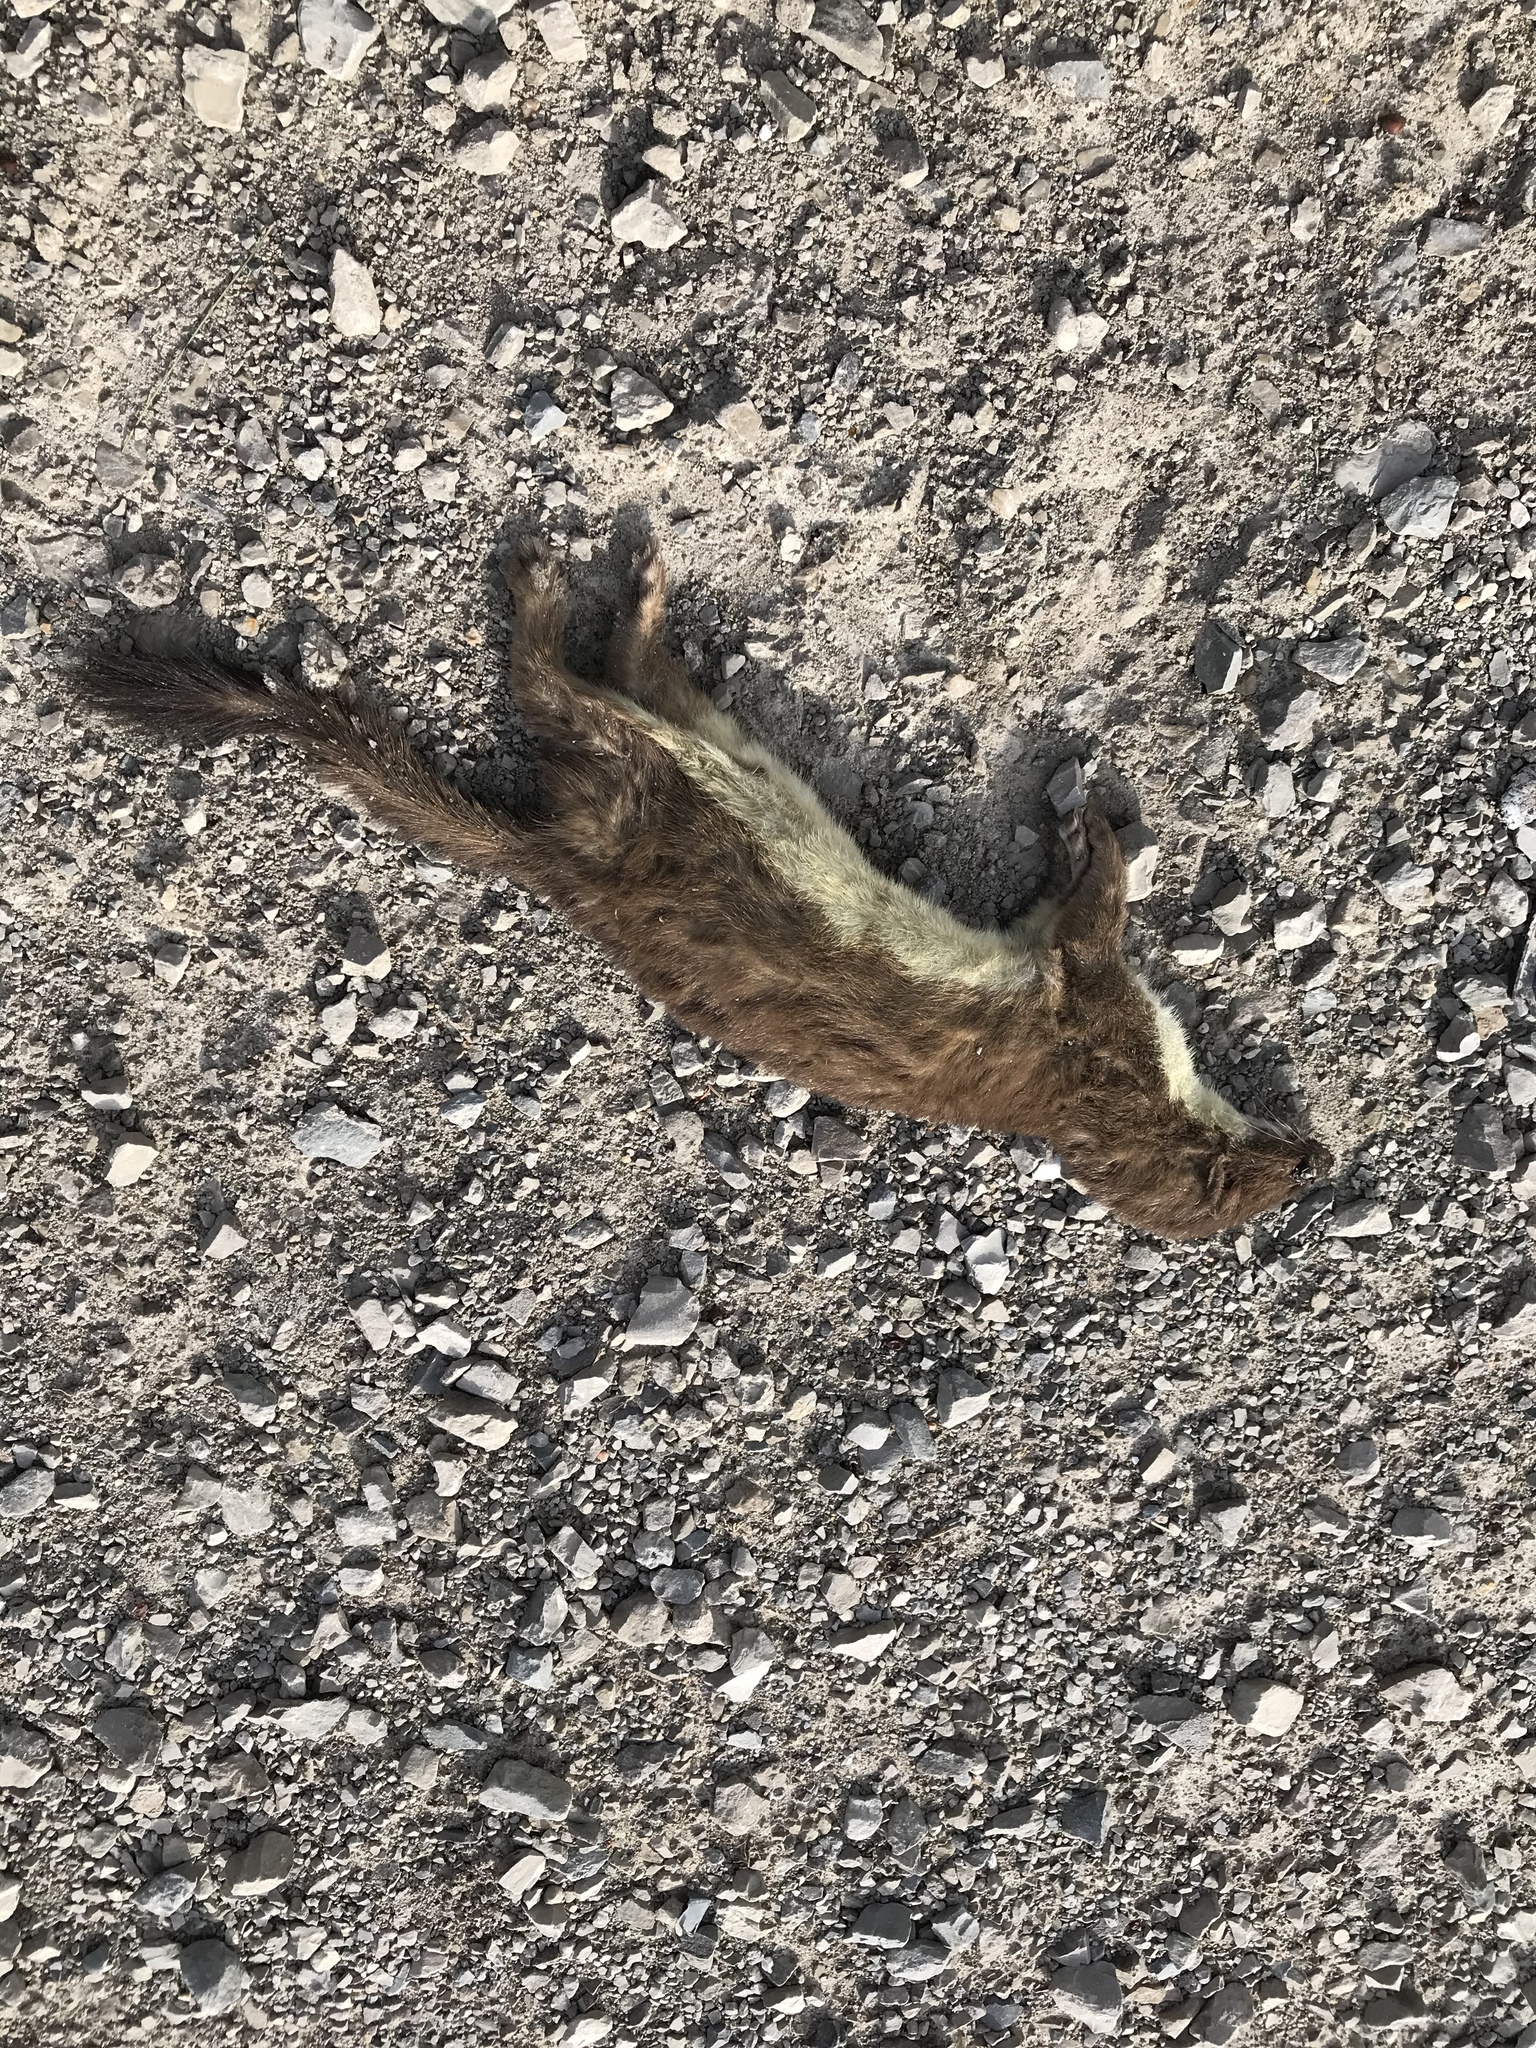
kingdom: Animalia
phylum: Chordata
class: Mammalia
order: Carnivora
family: Mustelidae
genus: Mustela
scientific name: Mustela erminea
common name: Stoat
